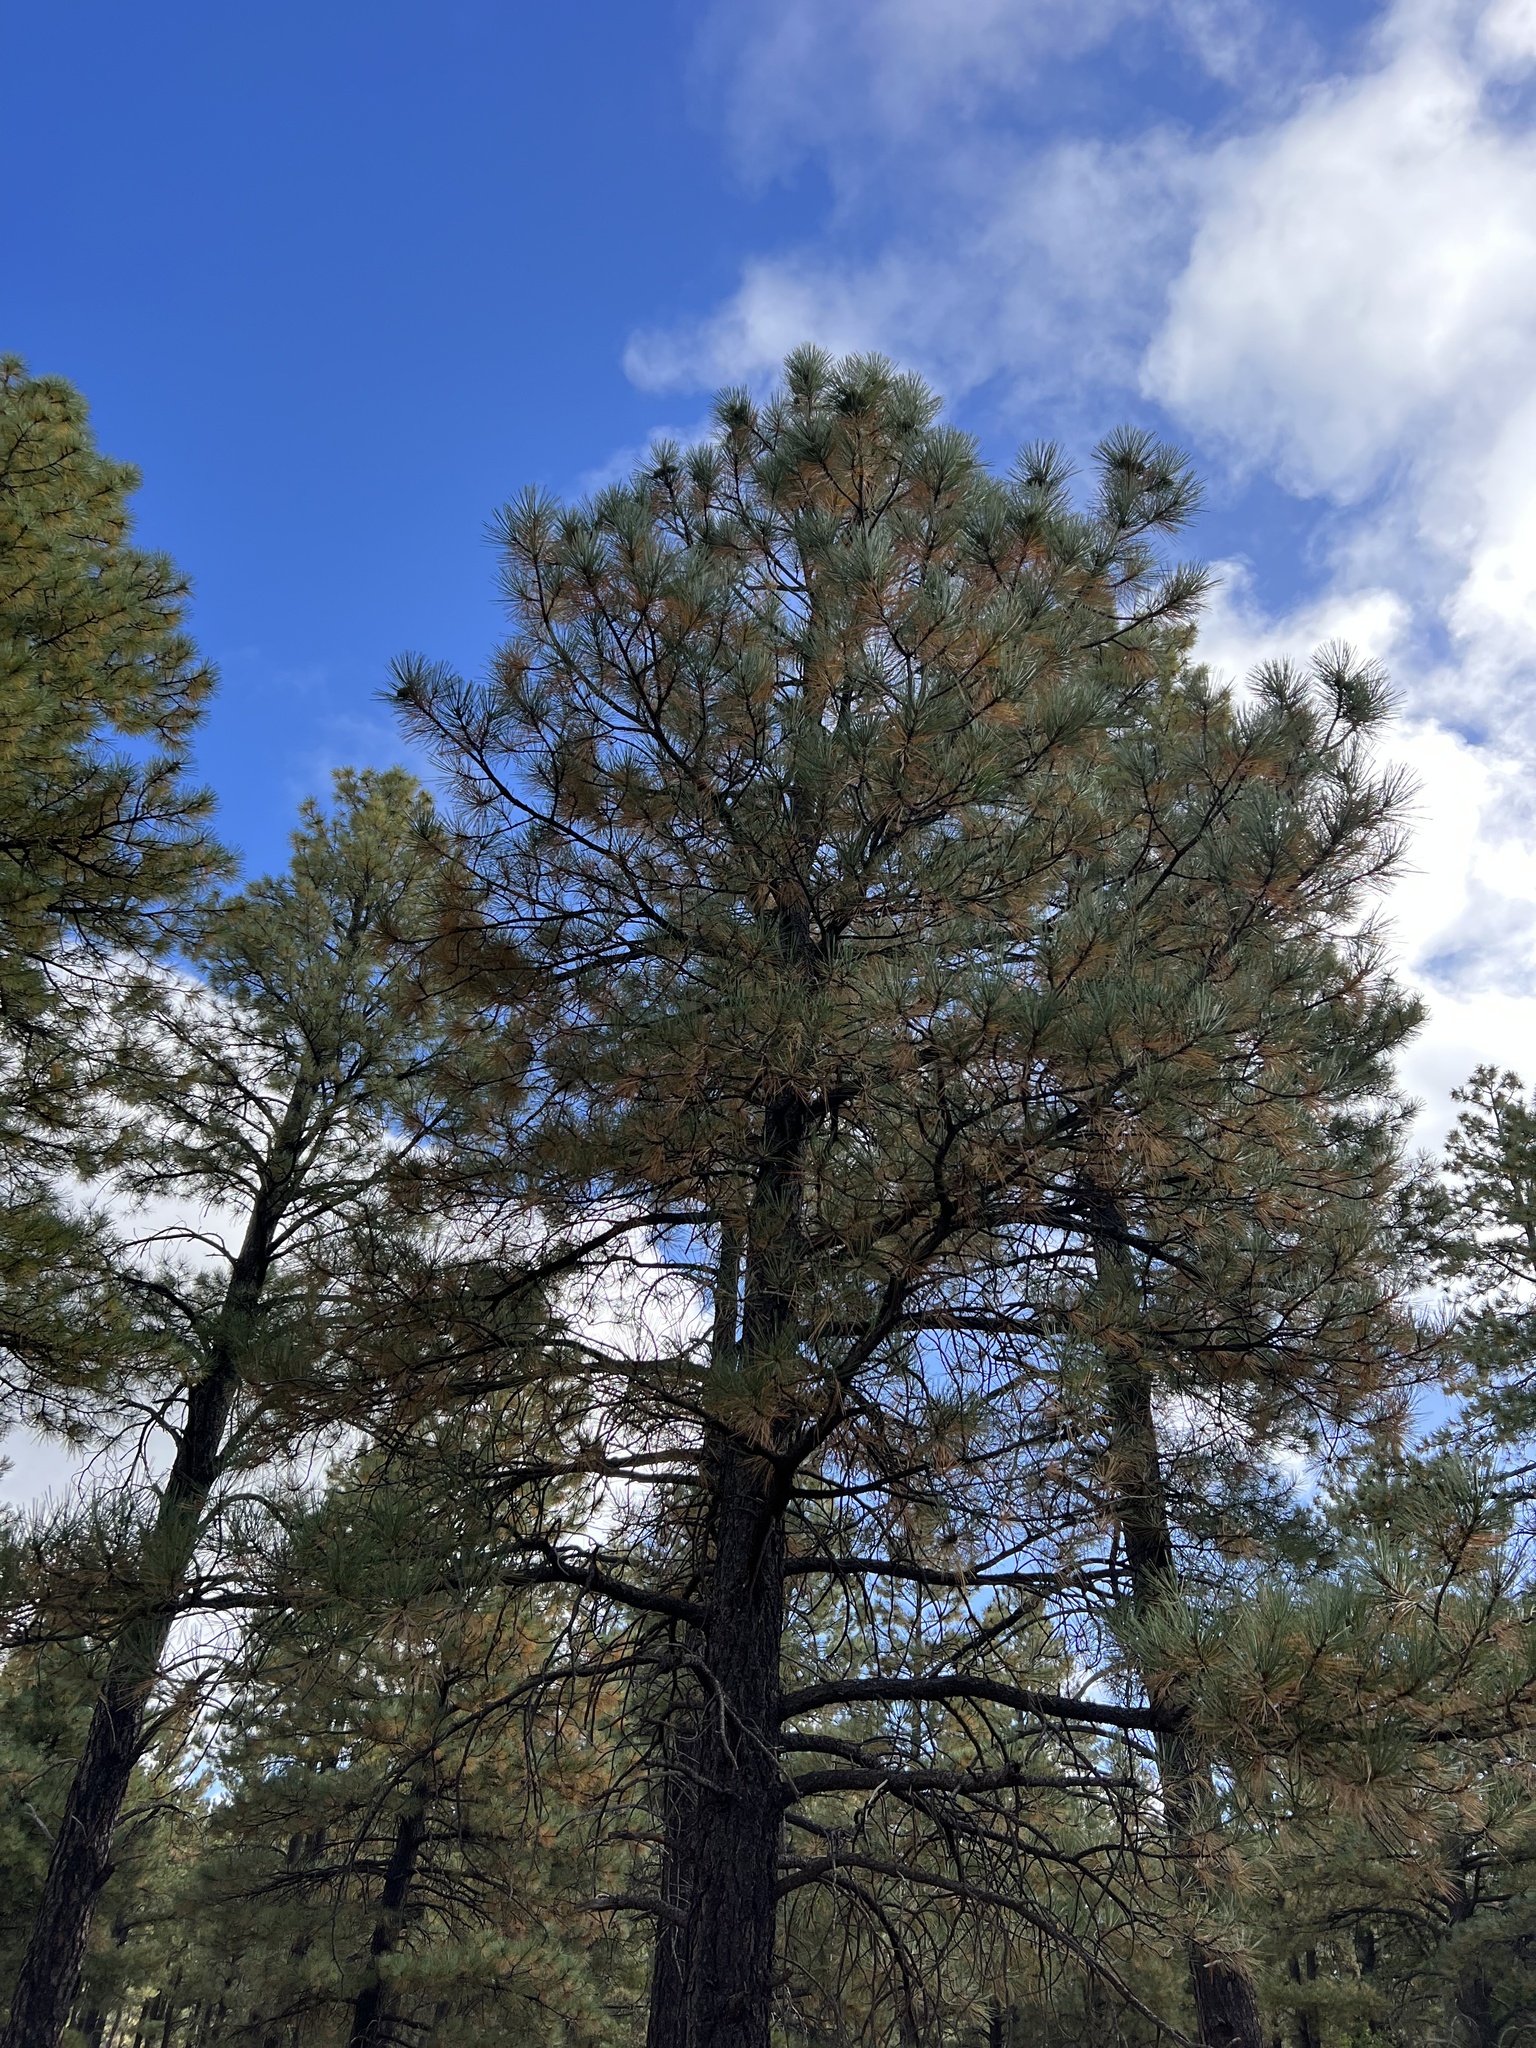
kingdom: Plantae
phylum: Tracheophyta
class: Pinopsida
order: Pinales
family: Pinaceae
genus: Pinus
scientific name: Pinus ponderosa
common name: Western yellow-pine
